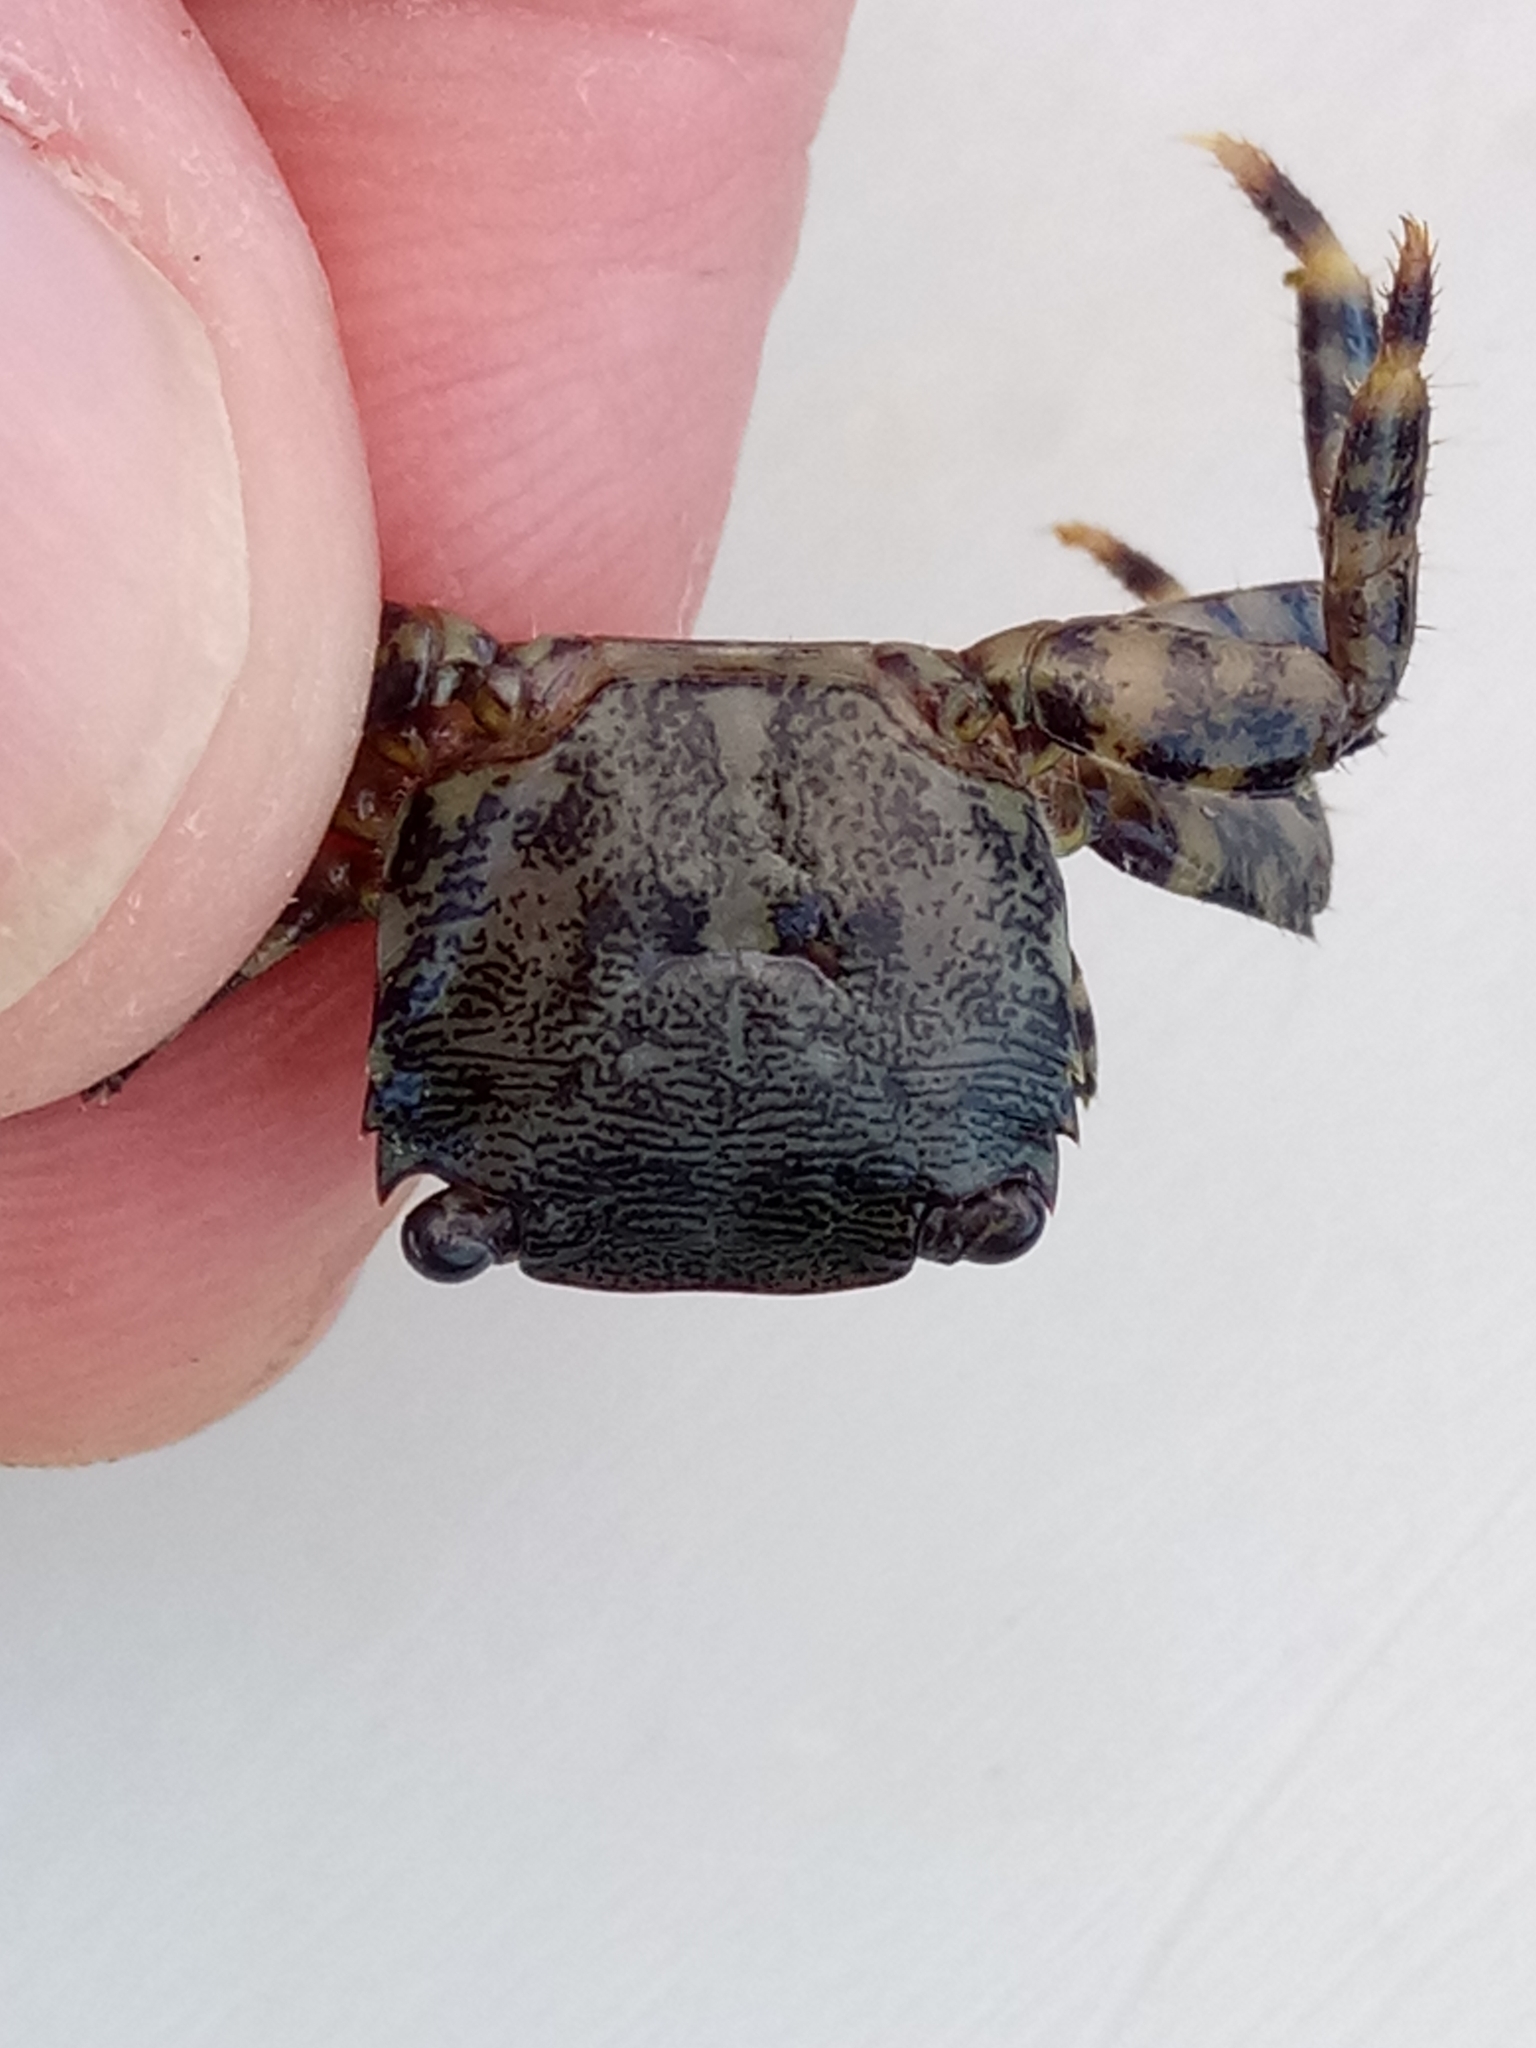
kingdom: Animalia
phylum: Arthropoda
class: Malacostraca
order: Decapoda
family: Grapsidae
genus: Pachygrapsus
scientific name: Pachygrapsus marmoratus
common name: Marbled rock crab
